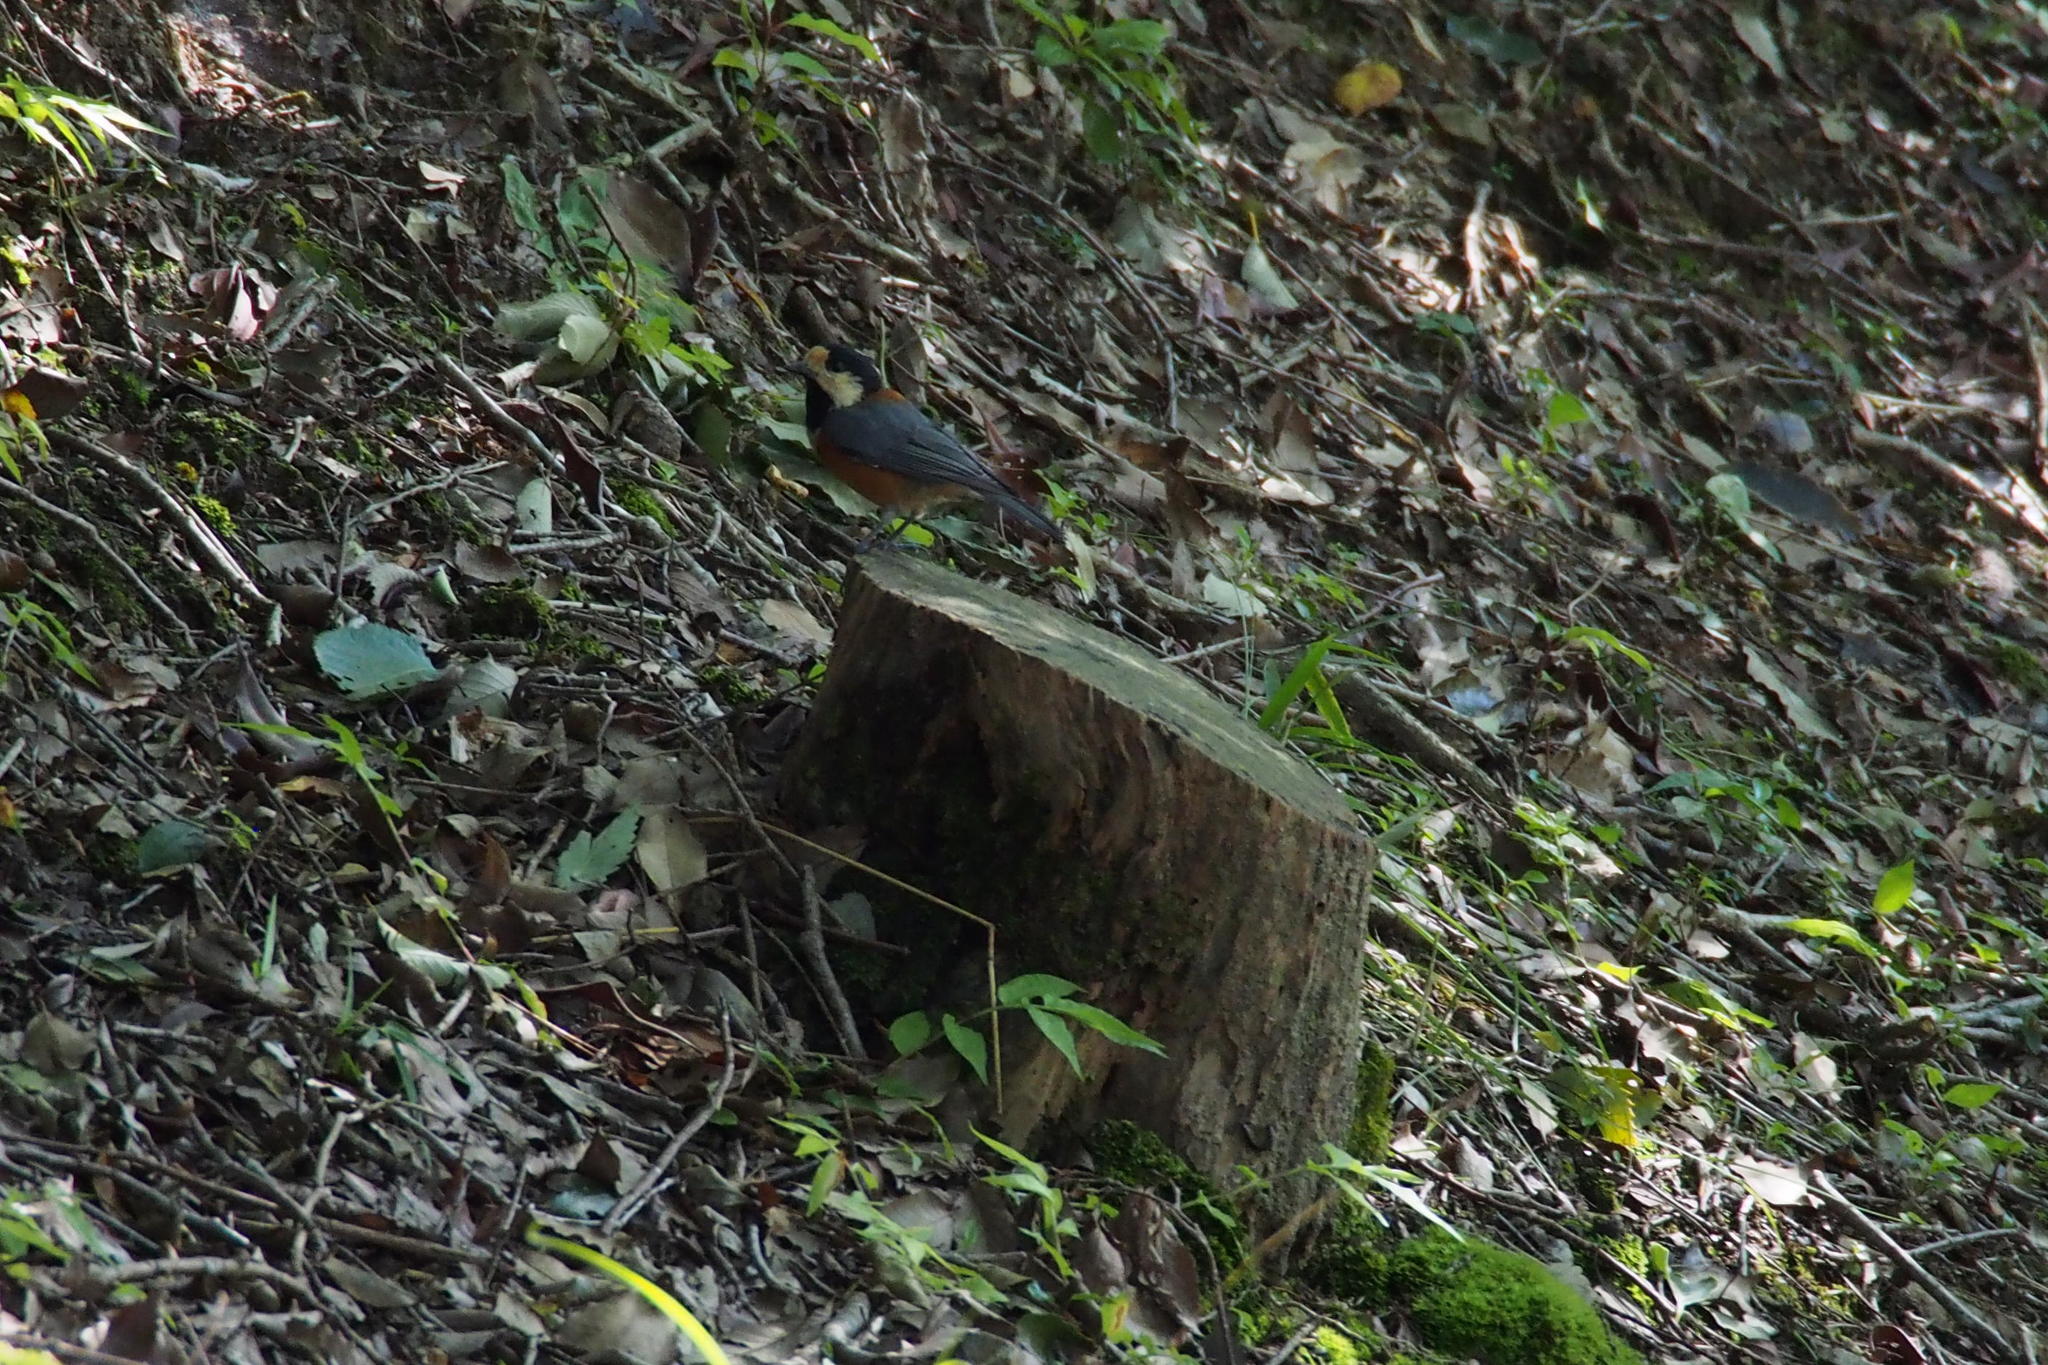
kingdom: Animalia
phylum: Chordata
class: Aves
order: Passeriformes
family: Paridae
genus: Poecile
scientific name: Poecile varius
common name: Varied tit
